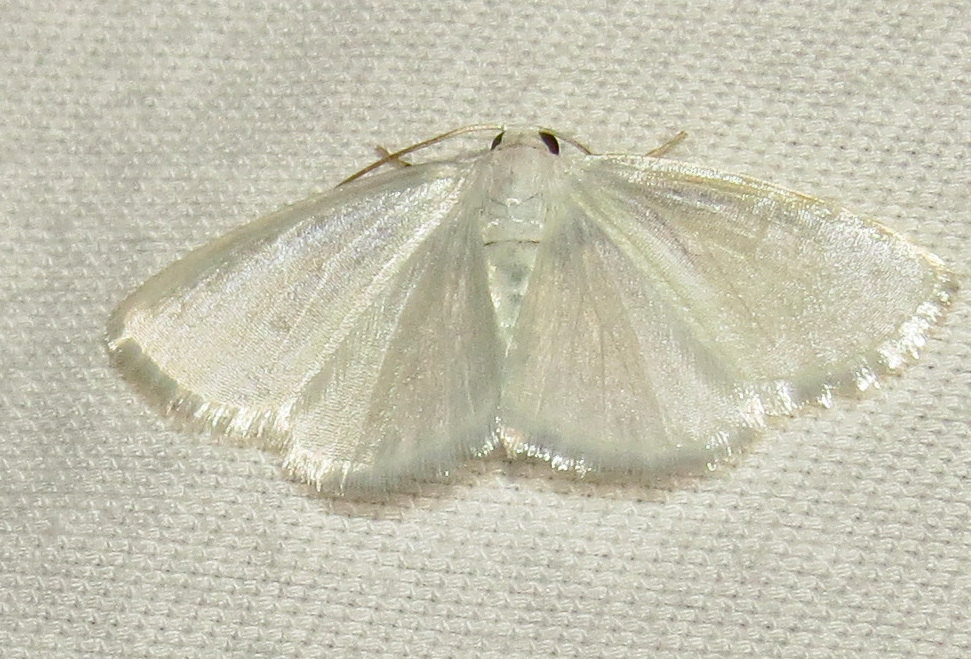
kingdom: Animalia
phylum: Arthropoda
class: Insecta
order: Lepidoptera
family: Geometridae
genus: Lomographa
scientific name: Lomographa vestaliata
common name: White spring moth
